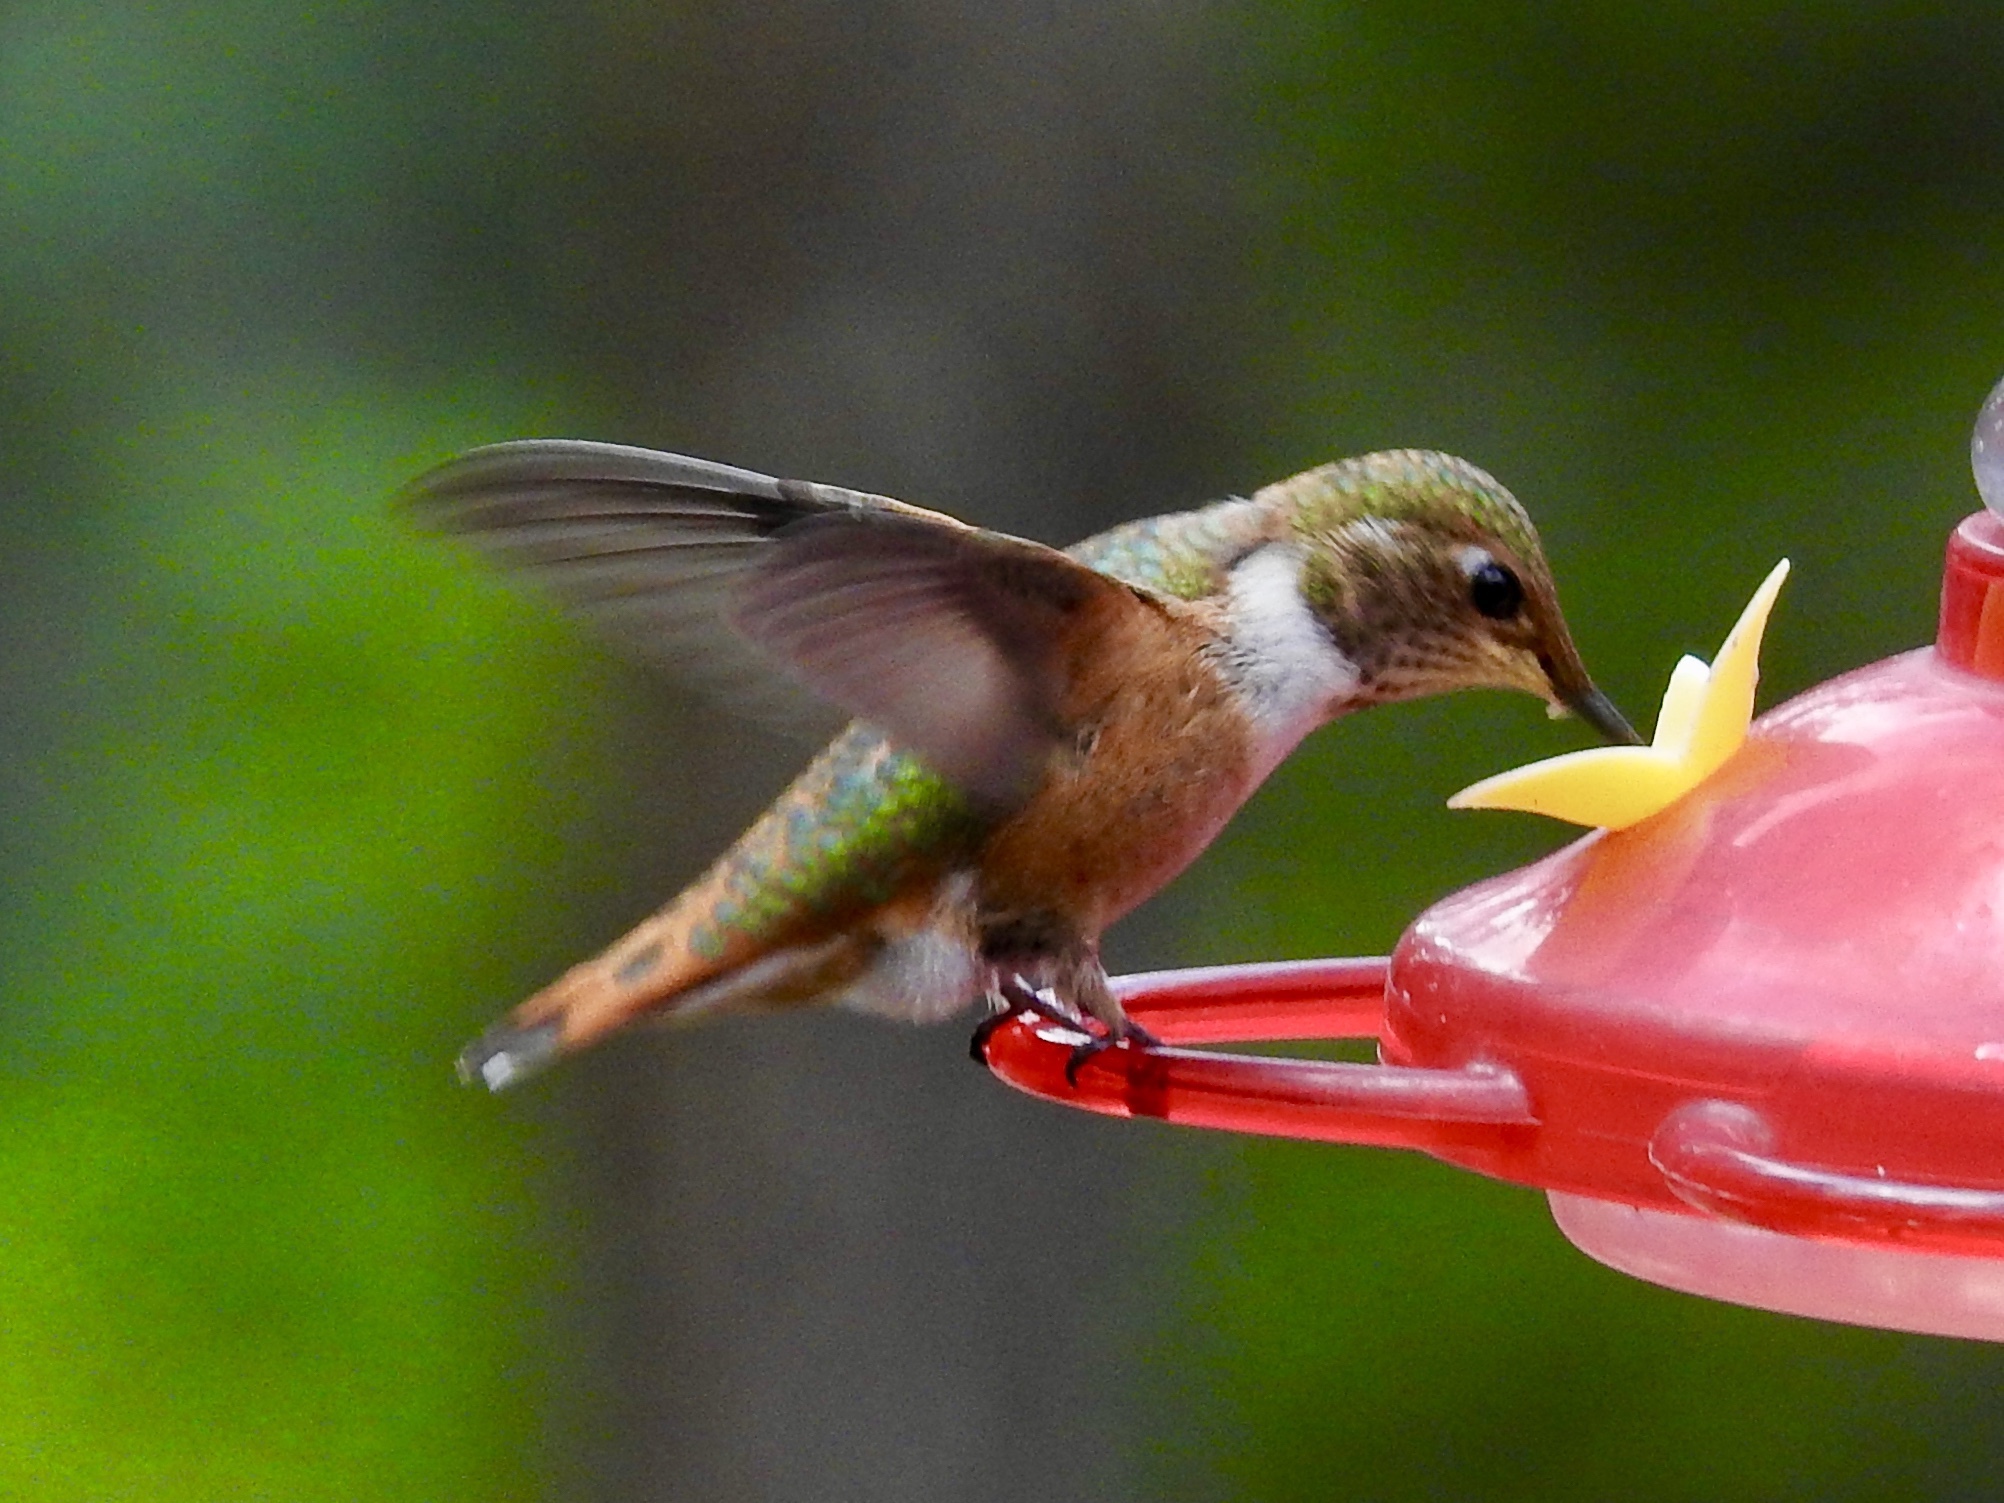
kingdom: Animalia
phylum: Chordata
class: Aves
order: Apodiformes
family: Trochilidae
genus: Selasphorus
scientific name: Selasphorus rufus
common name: Rufous hummingbird
